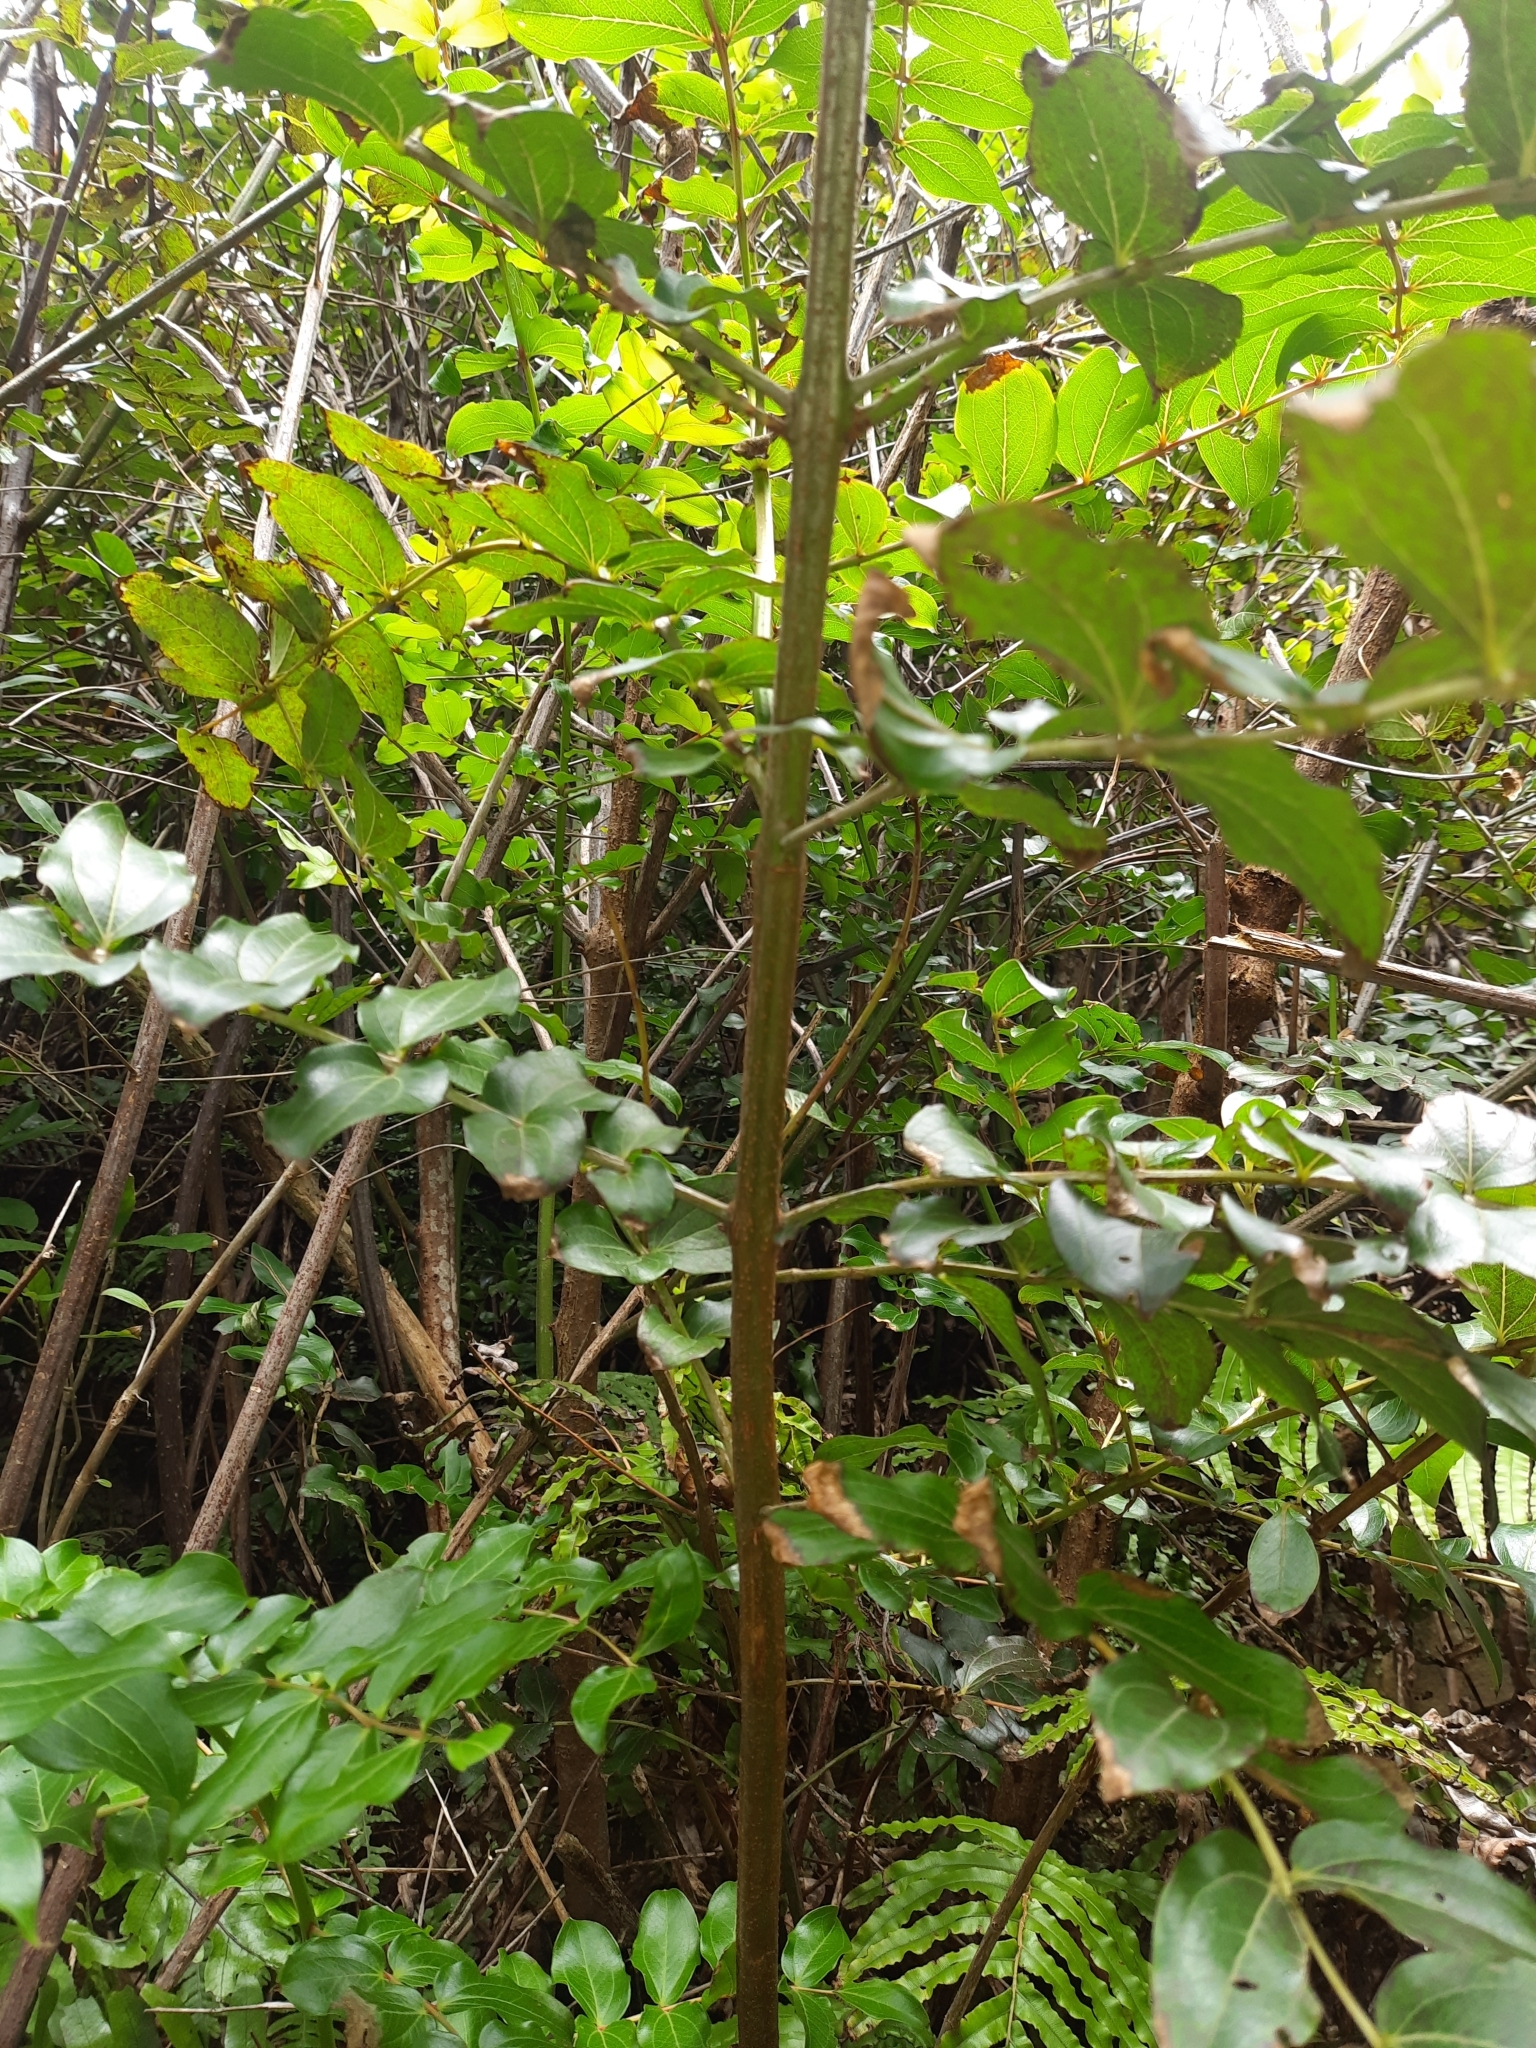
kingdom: Plantae
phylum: Tracheophyta
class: Magnoliopsida
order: Cucurbitales
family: Coriariaceae
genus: Coriaria
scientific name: Coriaria arborea
